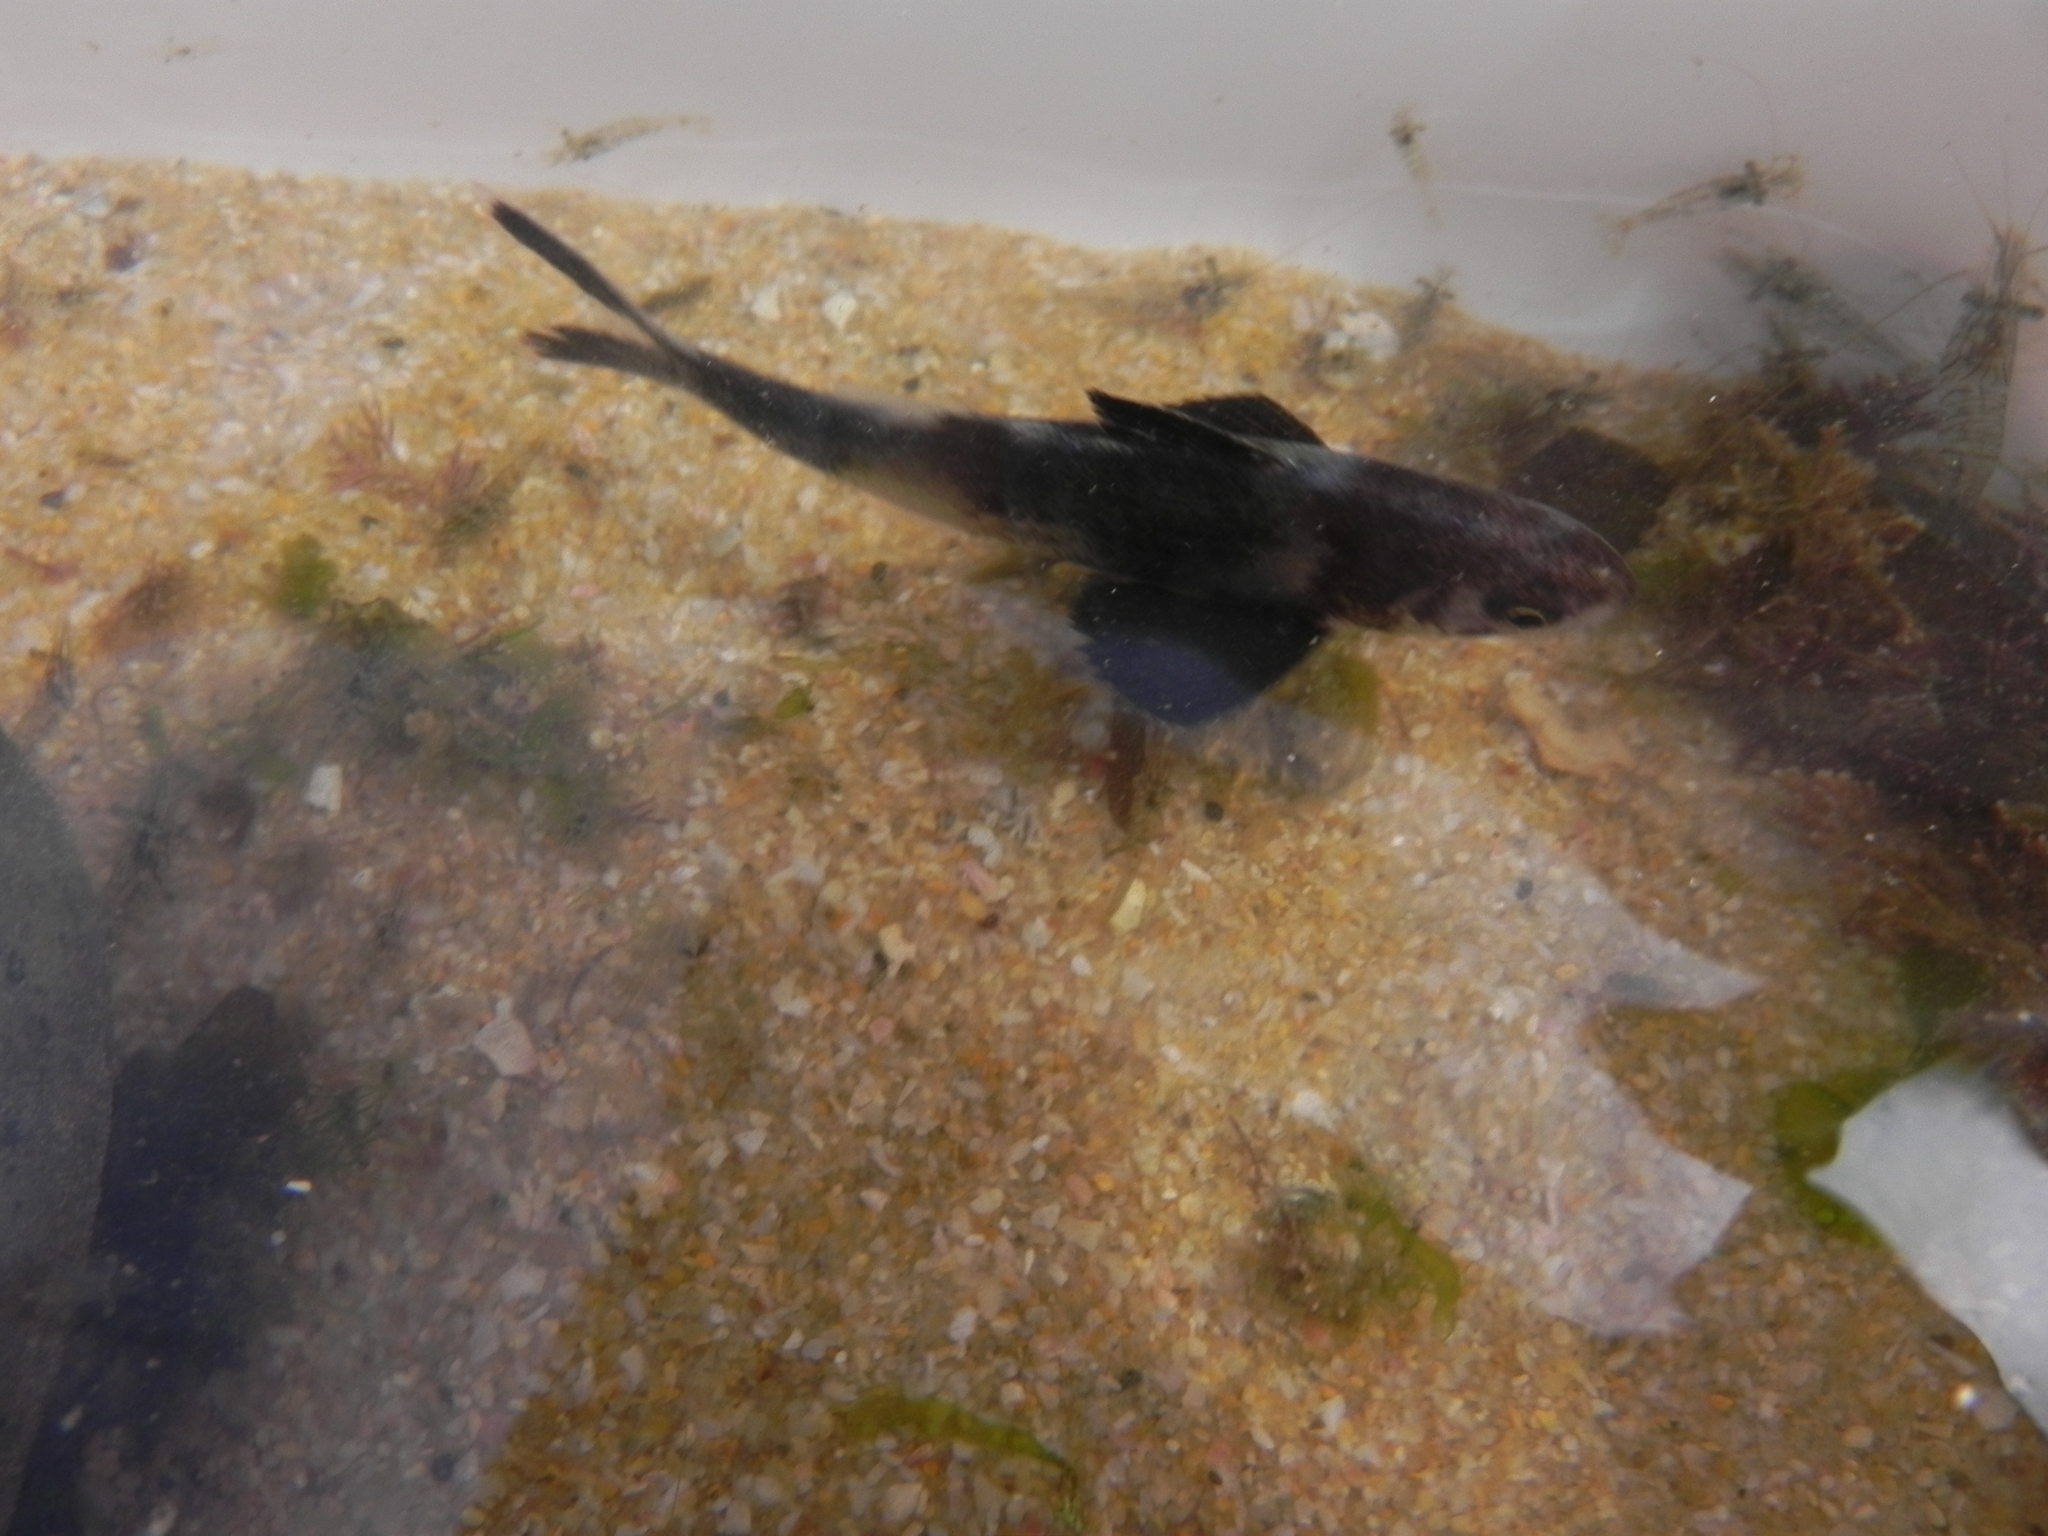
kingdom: Animalia
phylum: Chordata
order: Perciformes
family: Nomeidae
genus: Nomeus
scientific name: Nomeus gronovii
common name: Man-of-war fish
